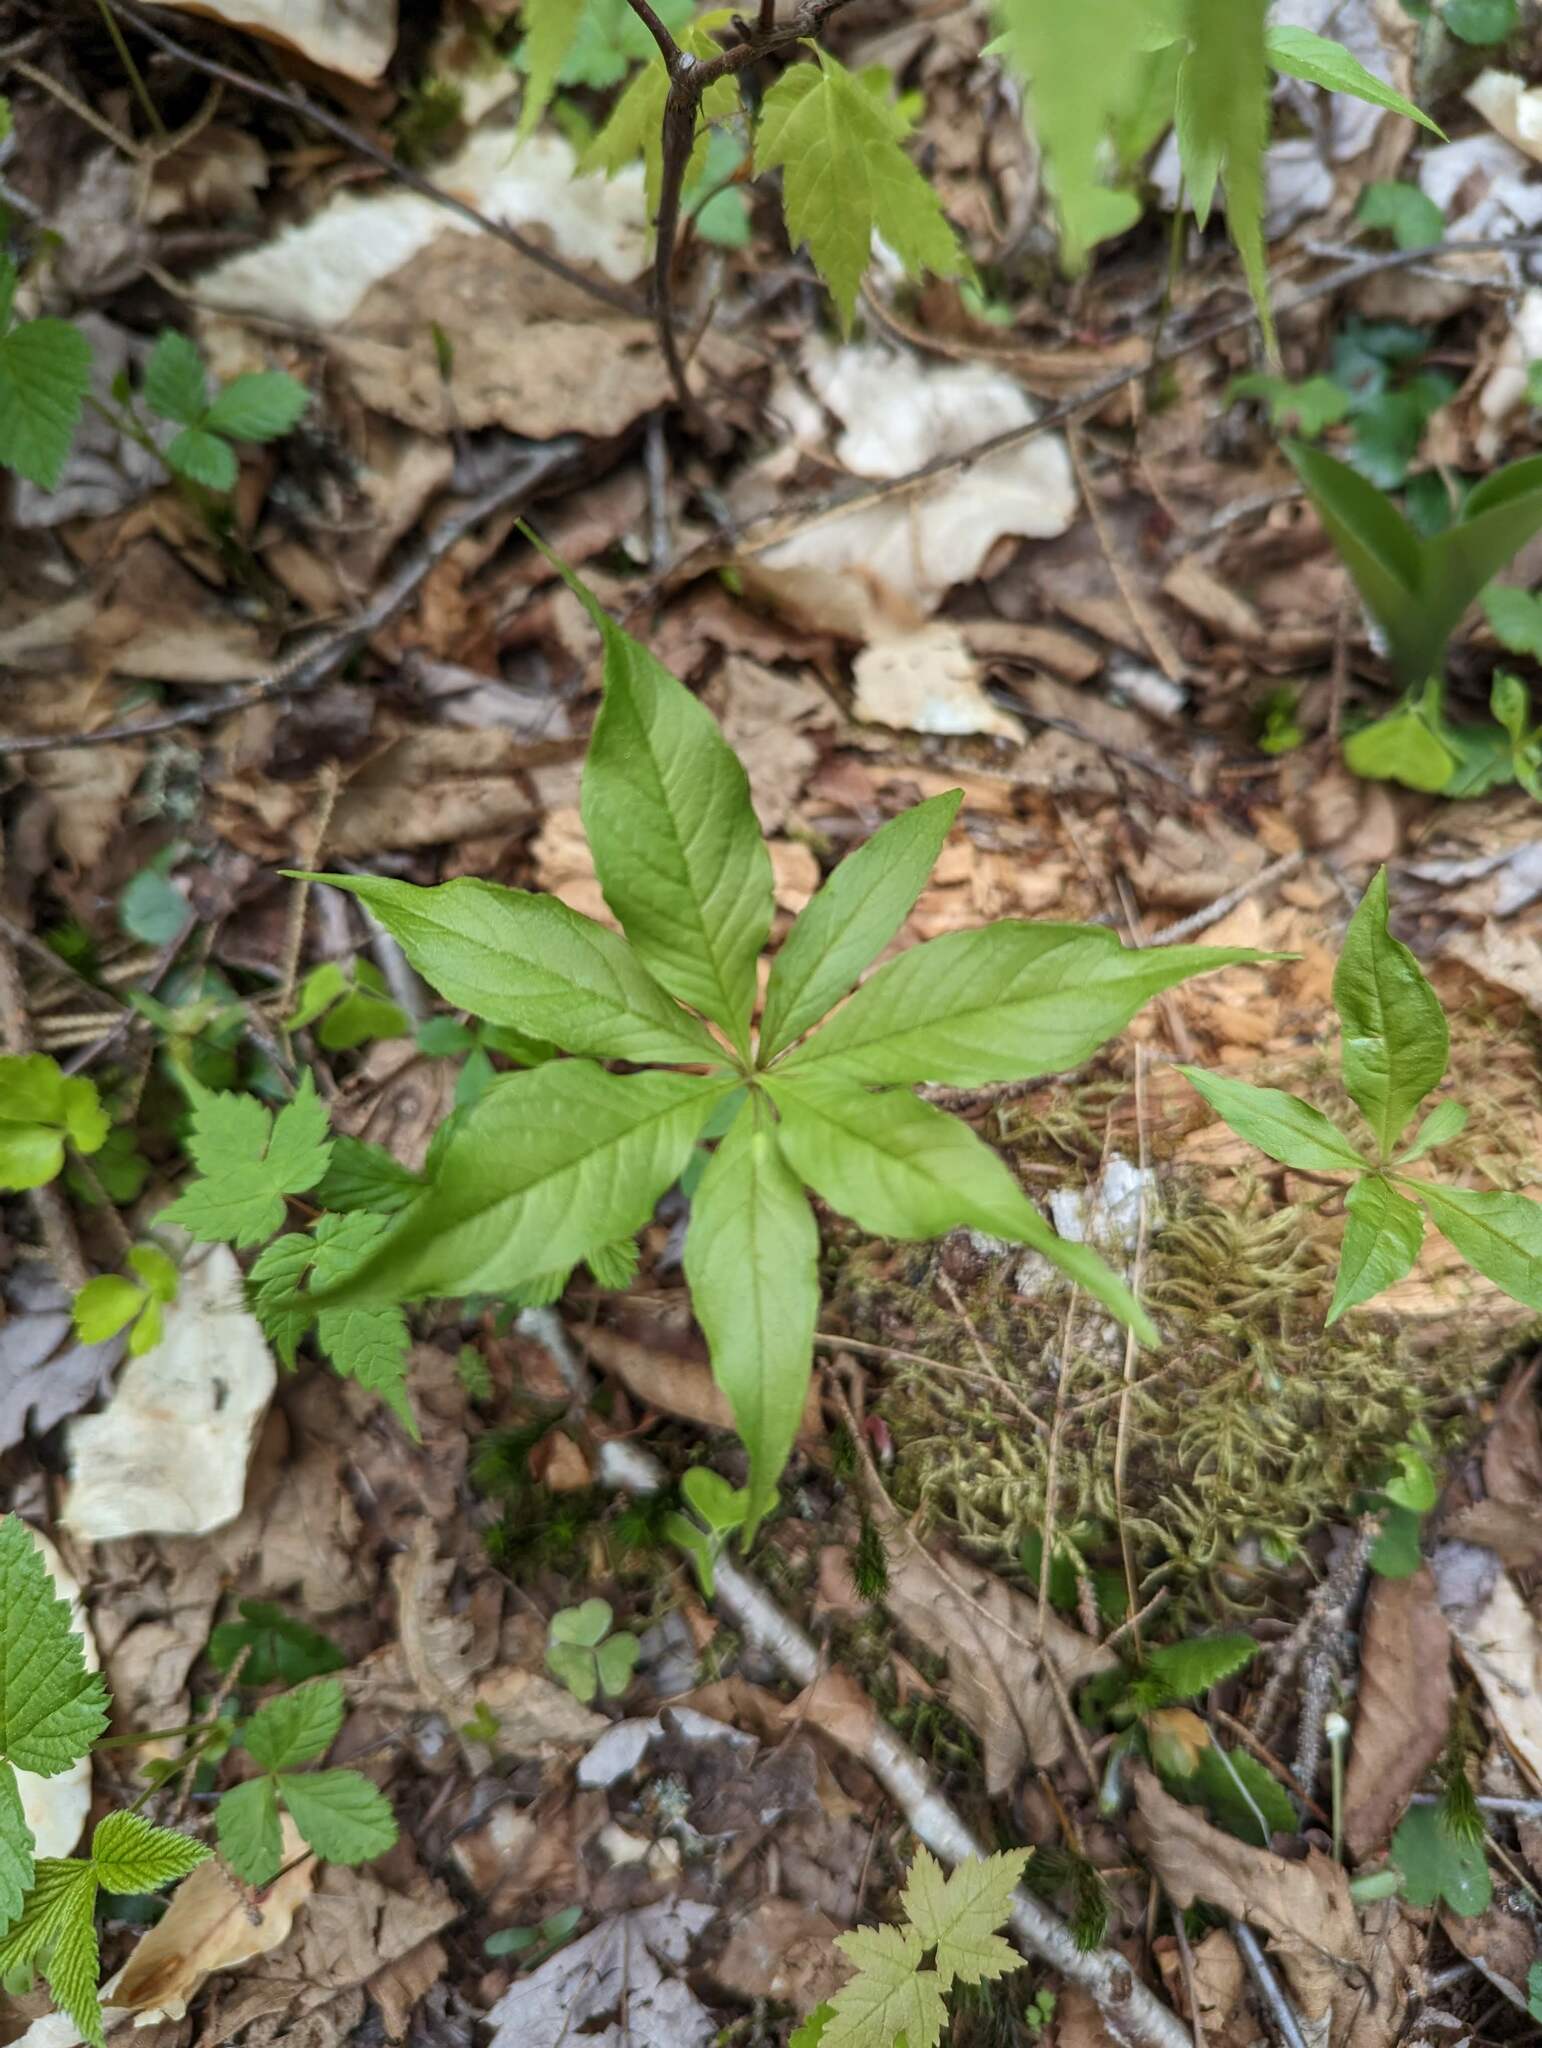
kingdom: Plantae
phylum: Tracheophyta
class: Magnoliopsida
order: Ericales
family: Primulaceae
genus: Lysimachia
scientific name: Lysimachia borealis
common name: American starflower
